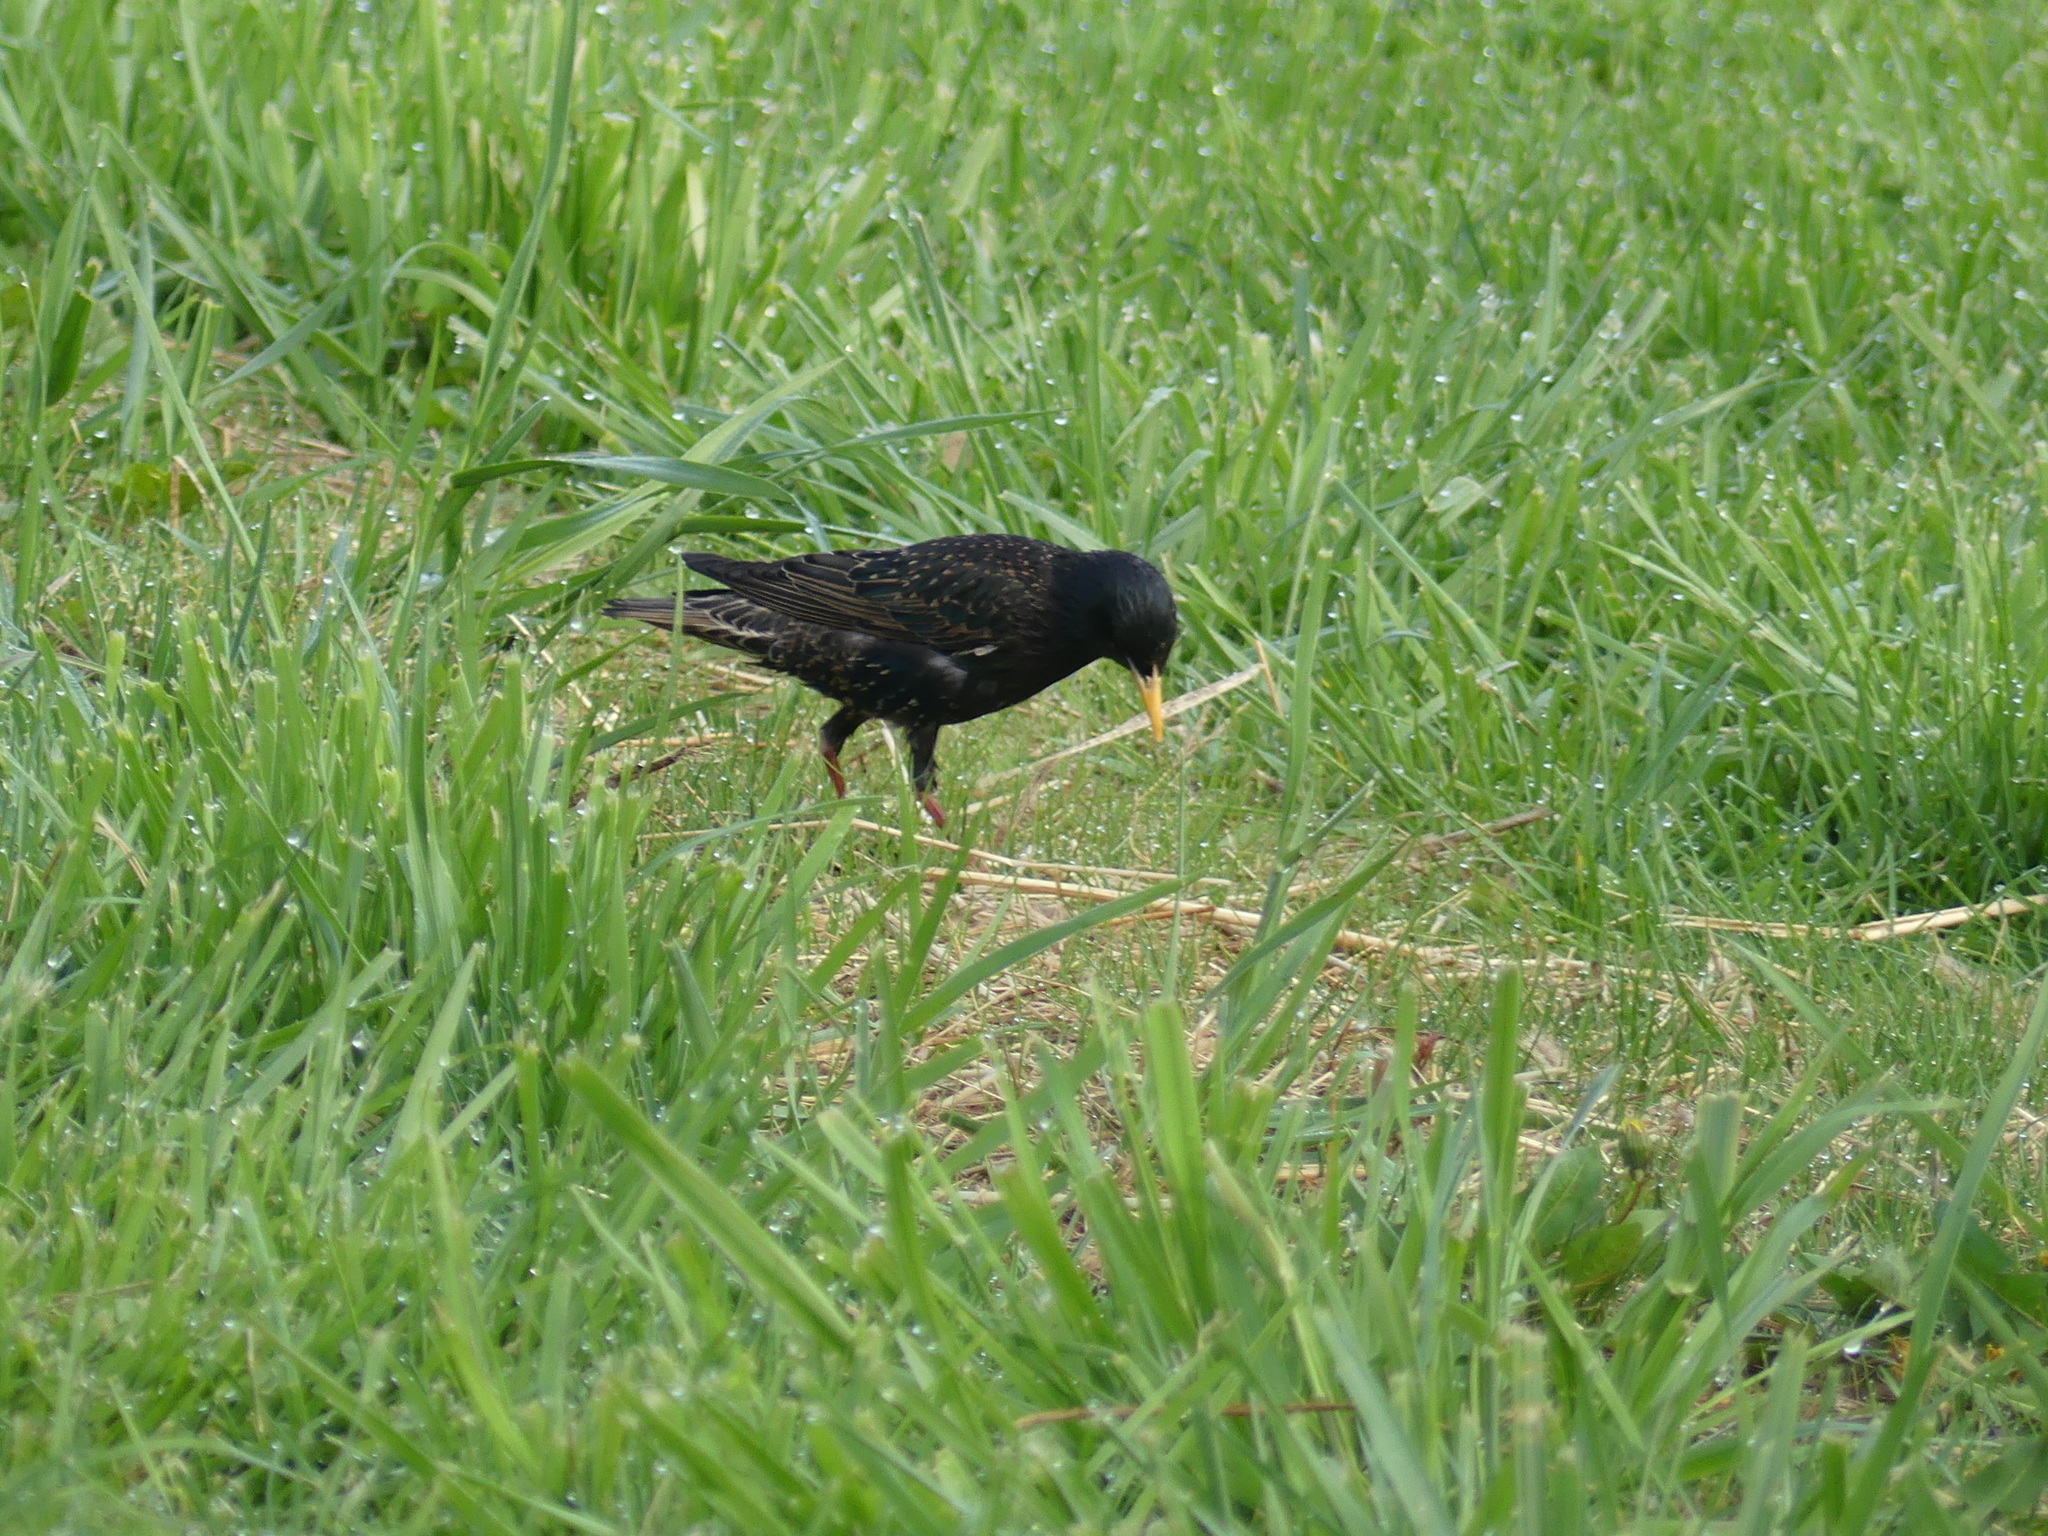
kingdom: Animalia
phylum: Chordata
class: Aves
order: Passeriformes
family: Sturnidae
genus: Sturnus
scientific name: Sturnus vulgaris
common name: Common starling
